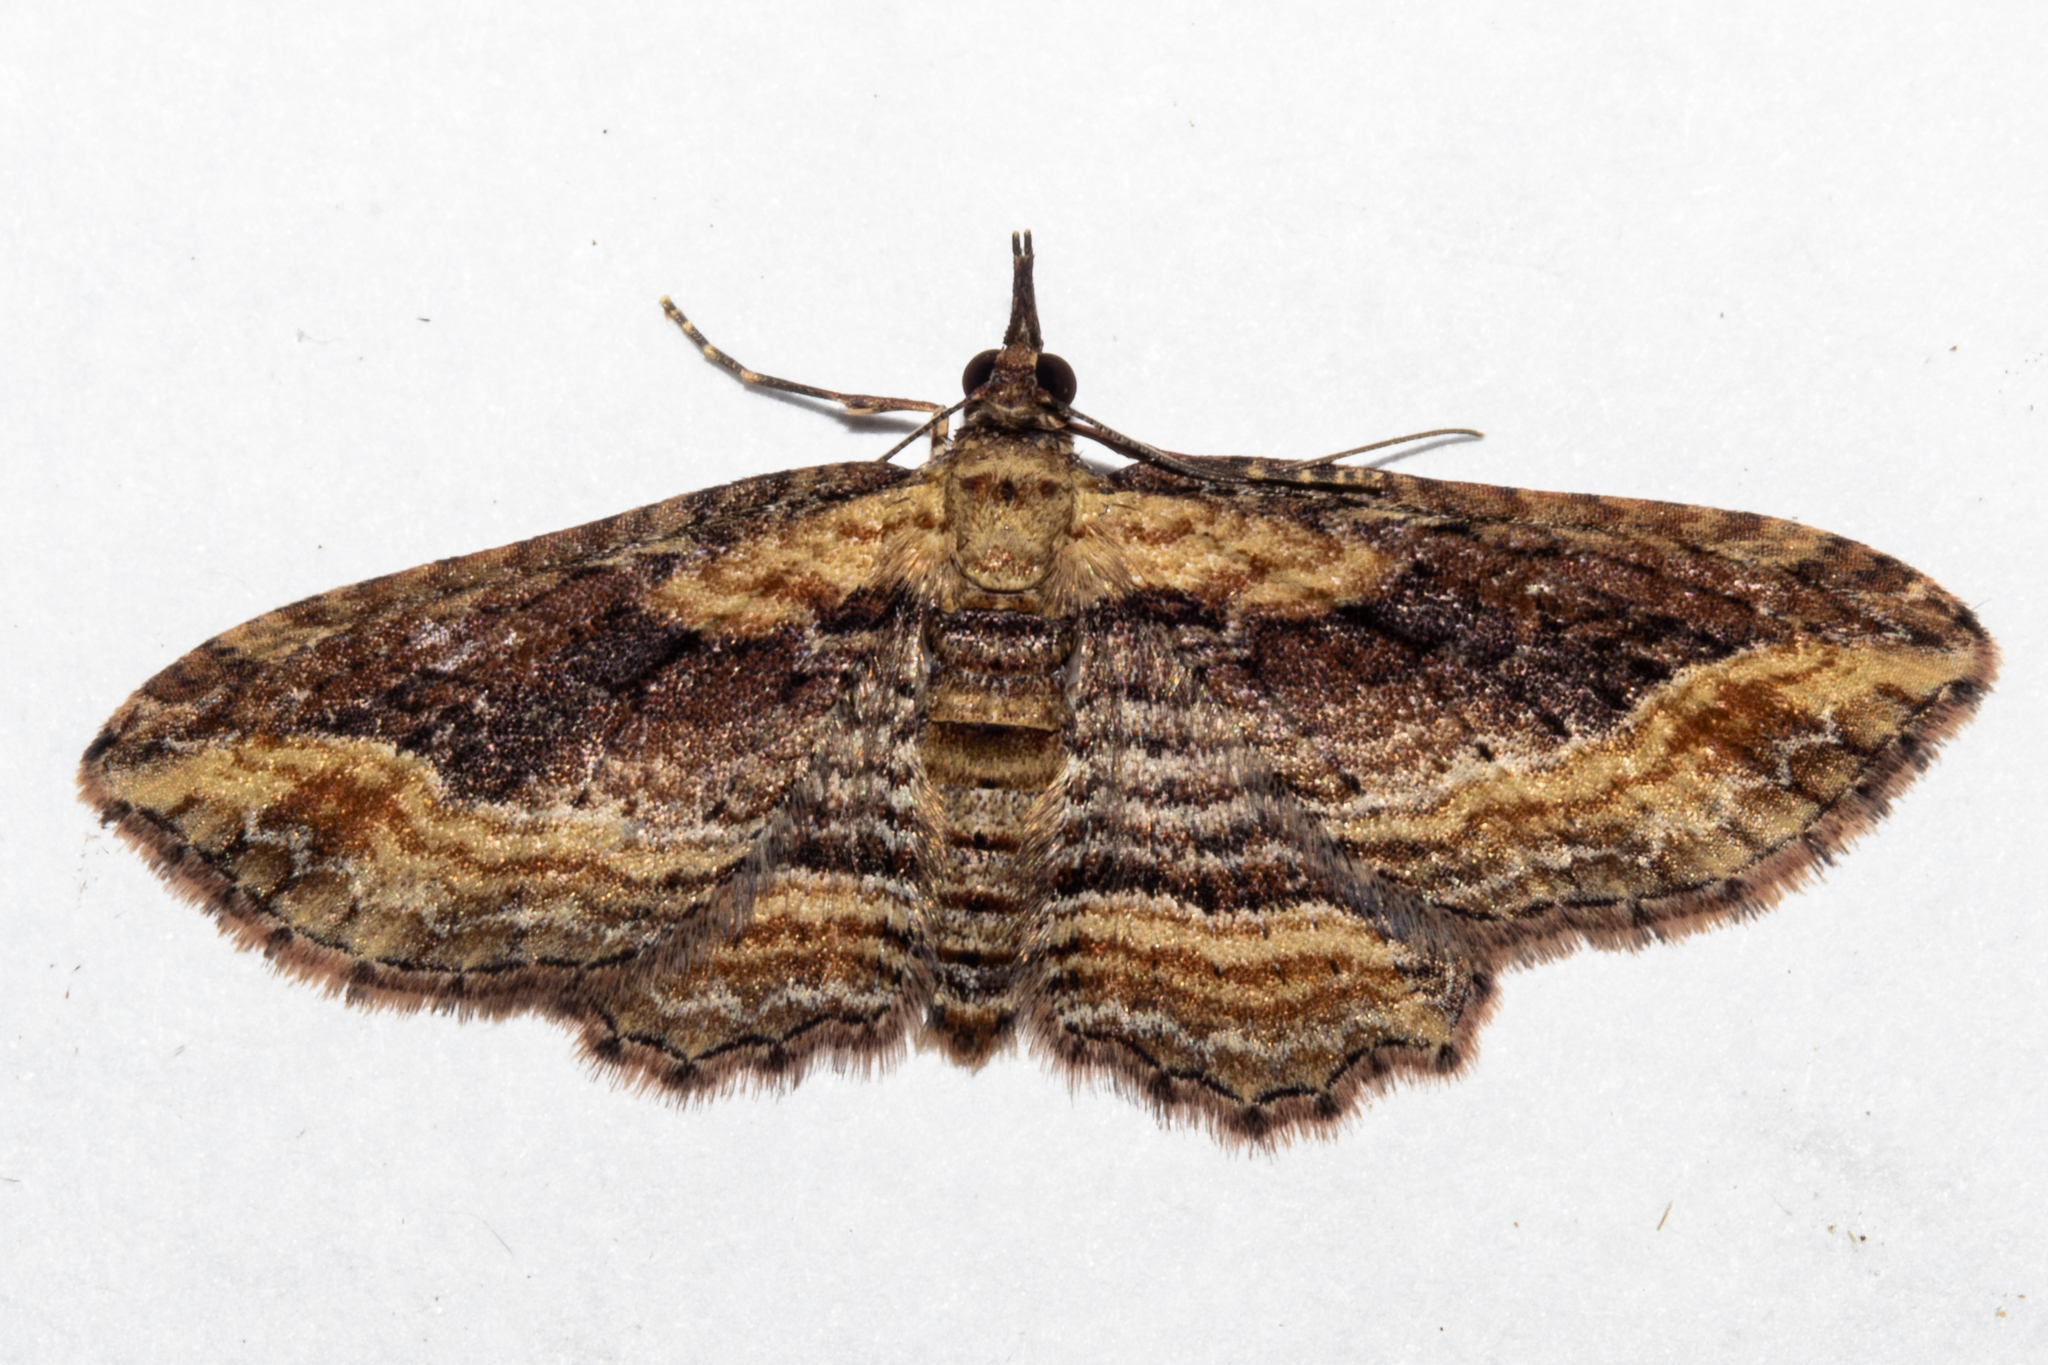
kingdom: Animalia
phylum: Arthropoda
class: Insecta
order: Lepidoptera
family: Geometridae
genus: Chloroclystis
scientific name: Chloroclystis filata
